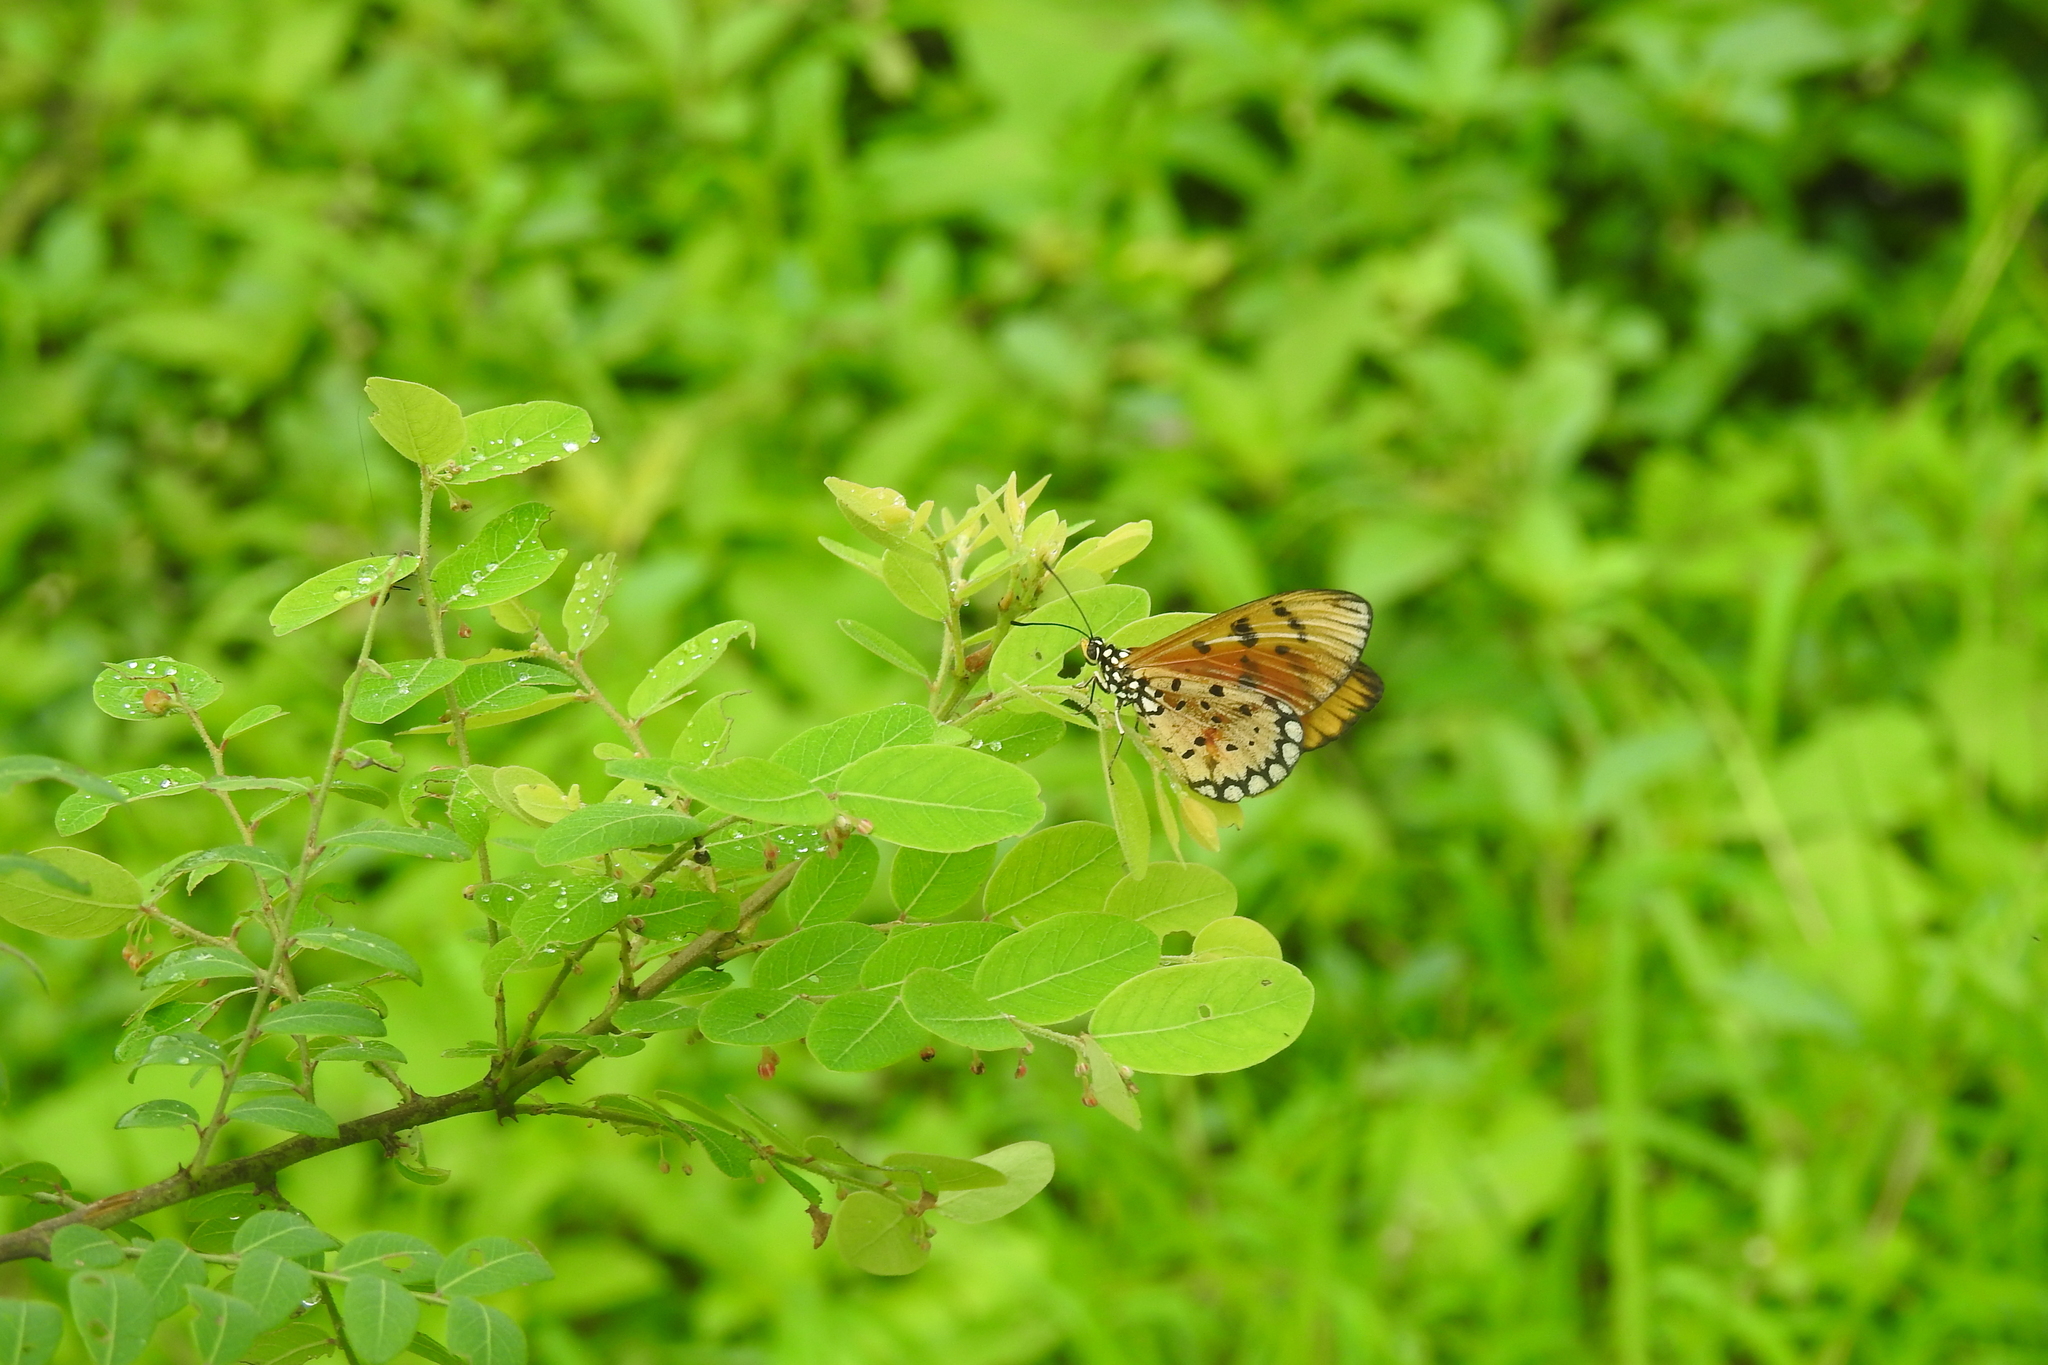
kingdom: Animalia
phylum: Arthropoda
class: Insecta
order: Lepidoptera
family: Nymphalidae
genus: Acraea
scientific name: Acraea terpsicore
